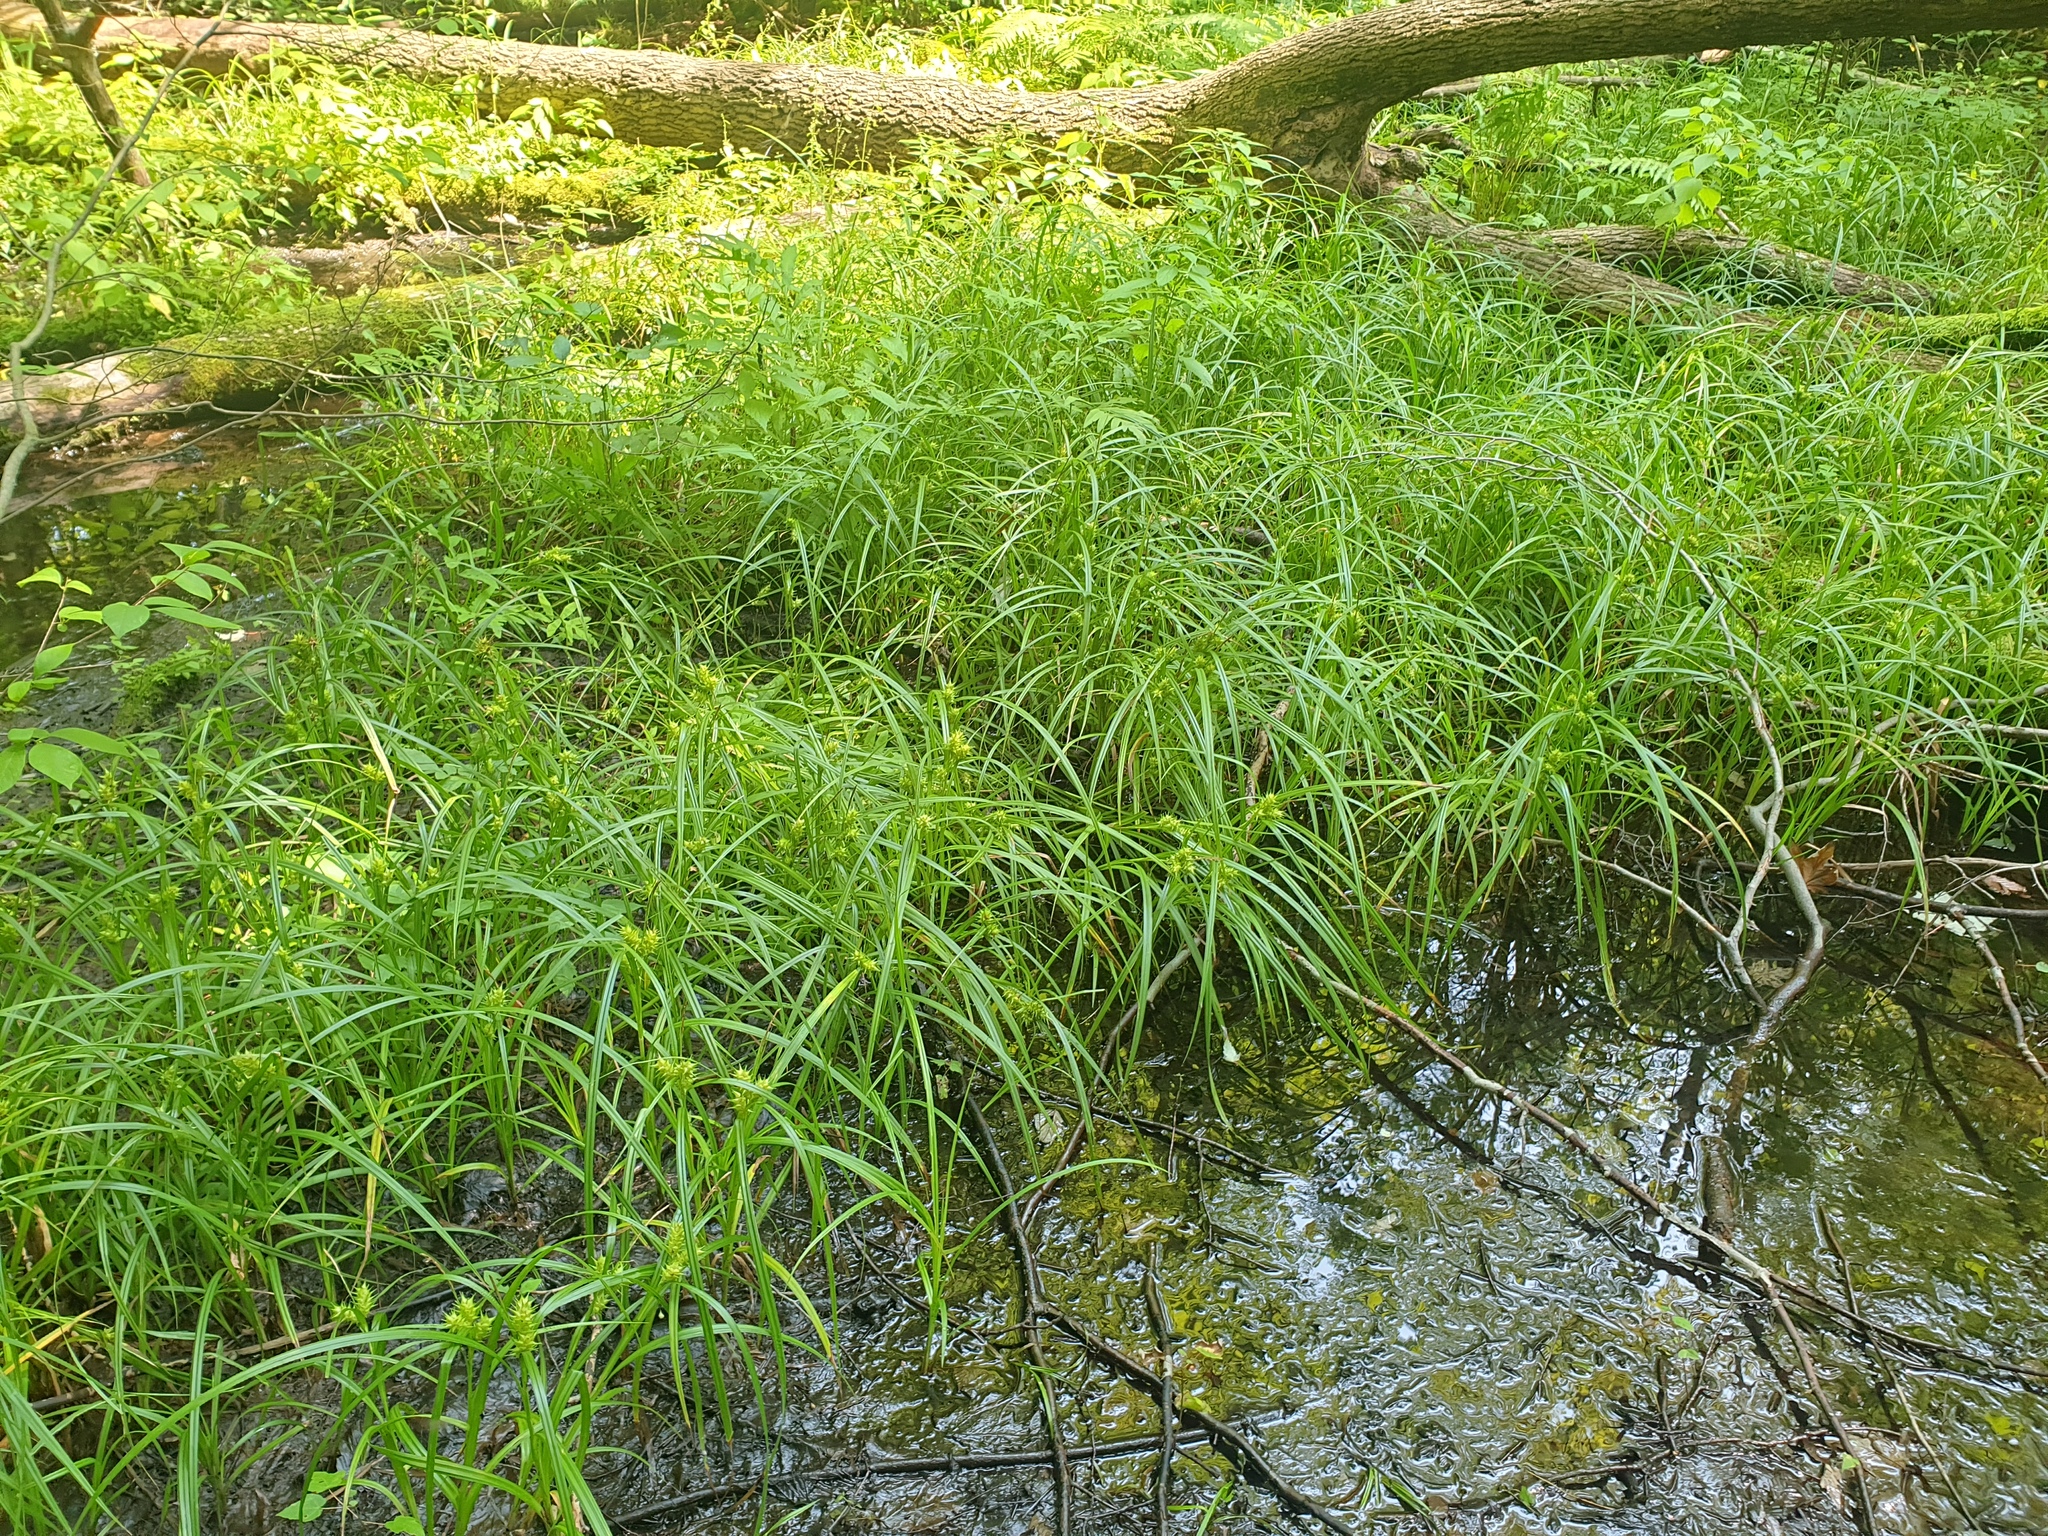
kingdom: Plantae
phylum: Tracheophyta
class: Liliopsida
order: Poales
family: Cyperaceae
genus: Carex
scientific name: Carex lupuliformis
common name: False hop sedge
